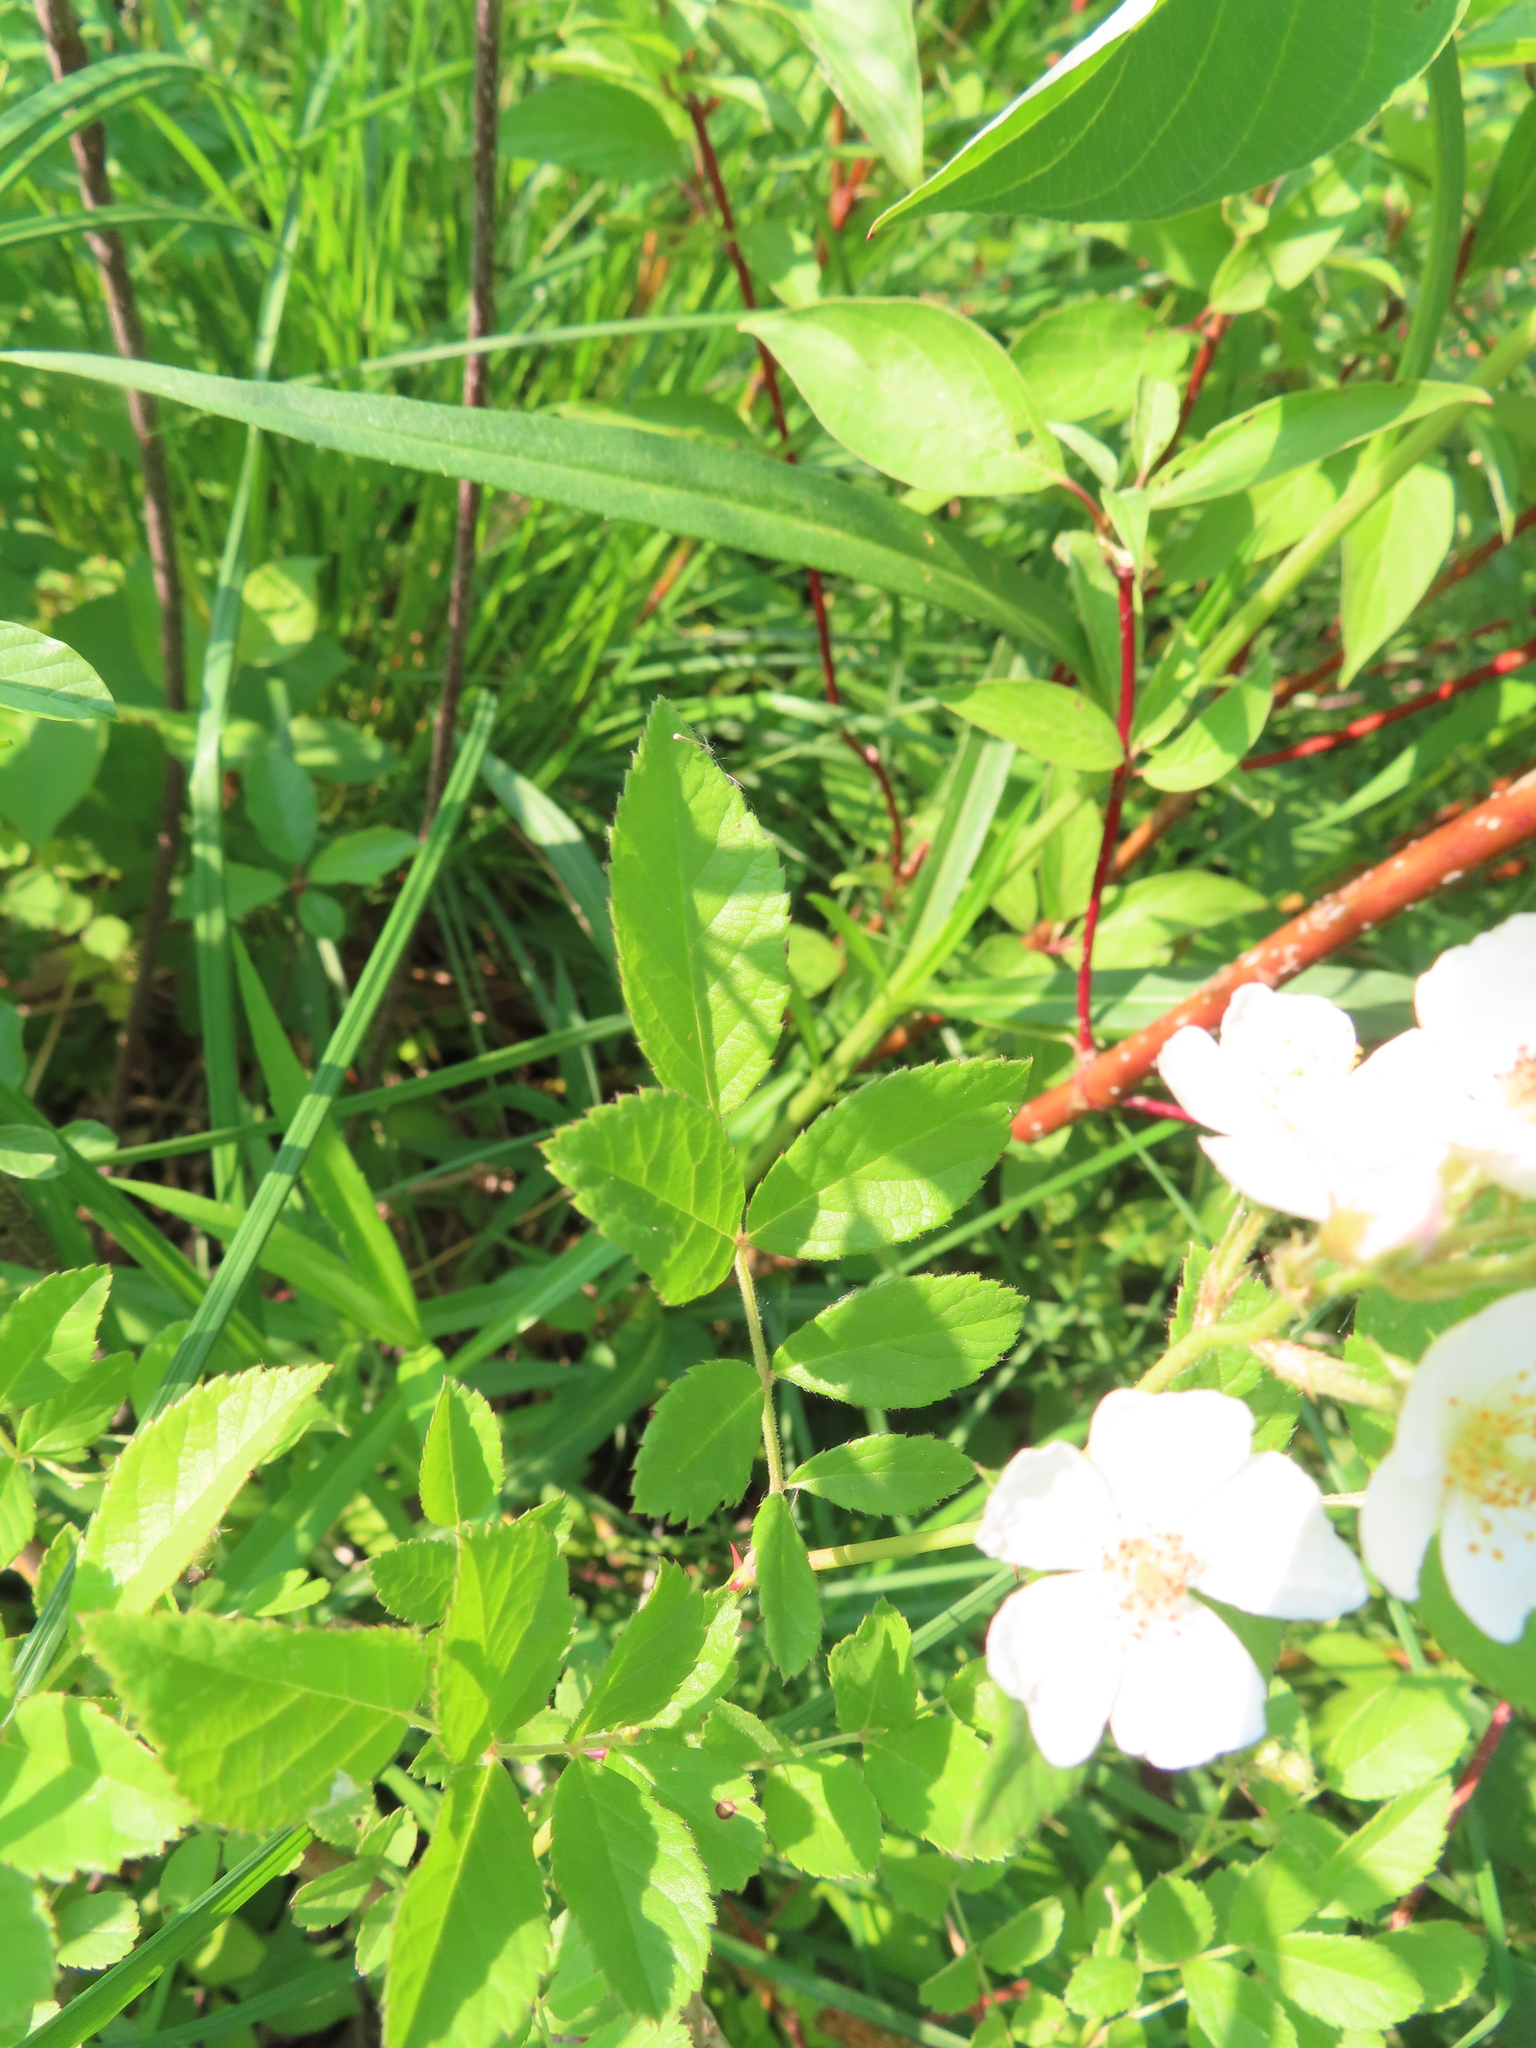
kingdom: Plantae
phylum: Tracheophyta
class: Magnoliopsida
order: Rosales
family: Rosaceae
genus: Rosa
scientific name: Rosa multiflora
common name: Multiflora rose
